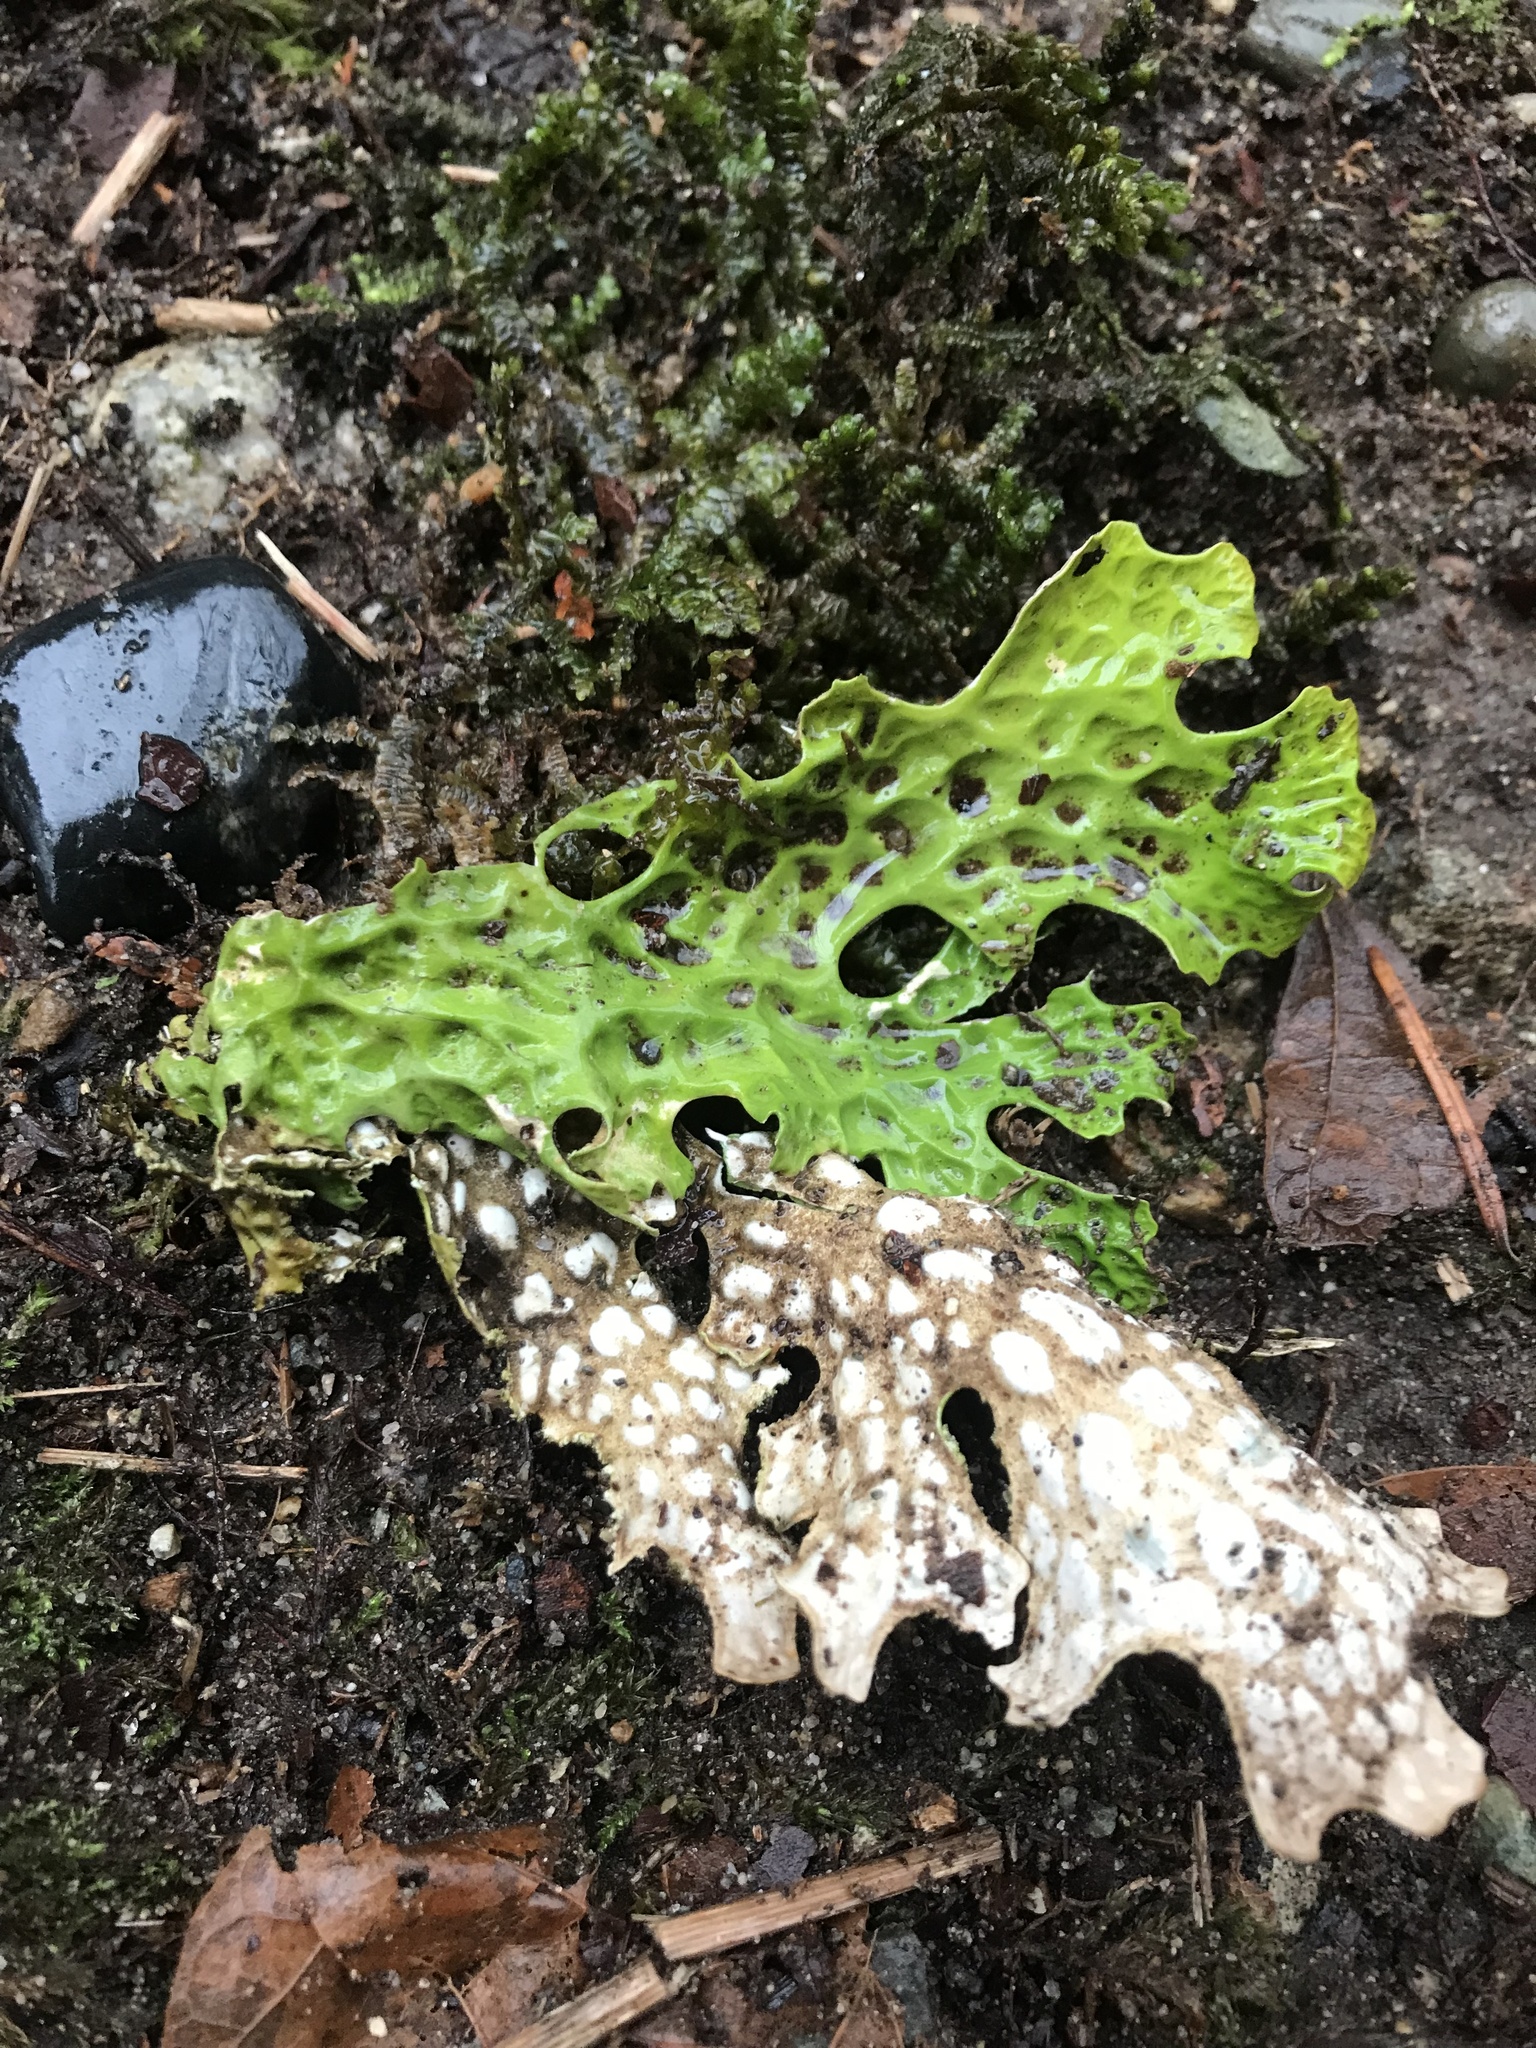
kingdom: Fungi
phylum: Ascomycota
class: Lecanoromycetes
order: Peltigerales
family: Lobariaceae
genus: Lobaria
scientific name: Lobaria pulmonaria
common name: Lungwort
